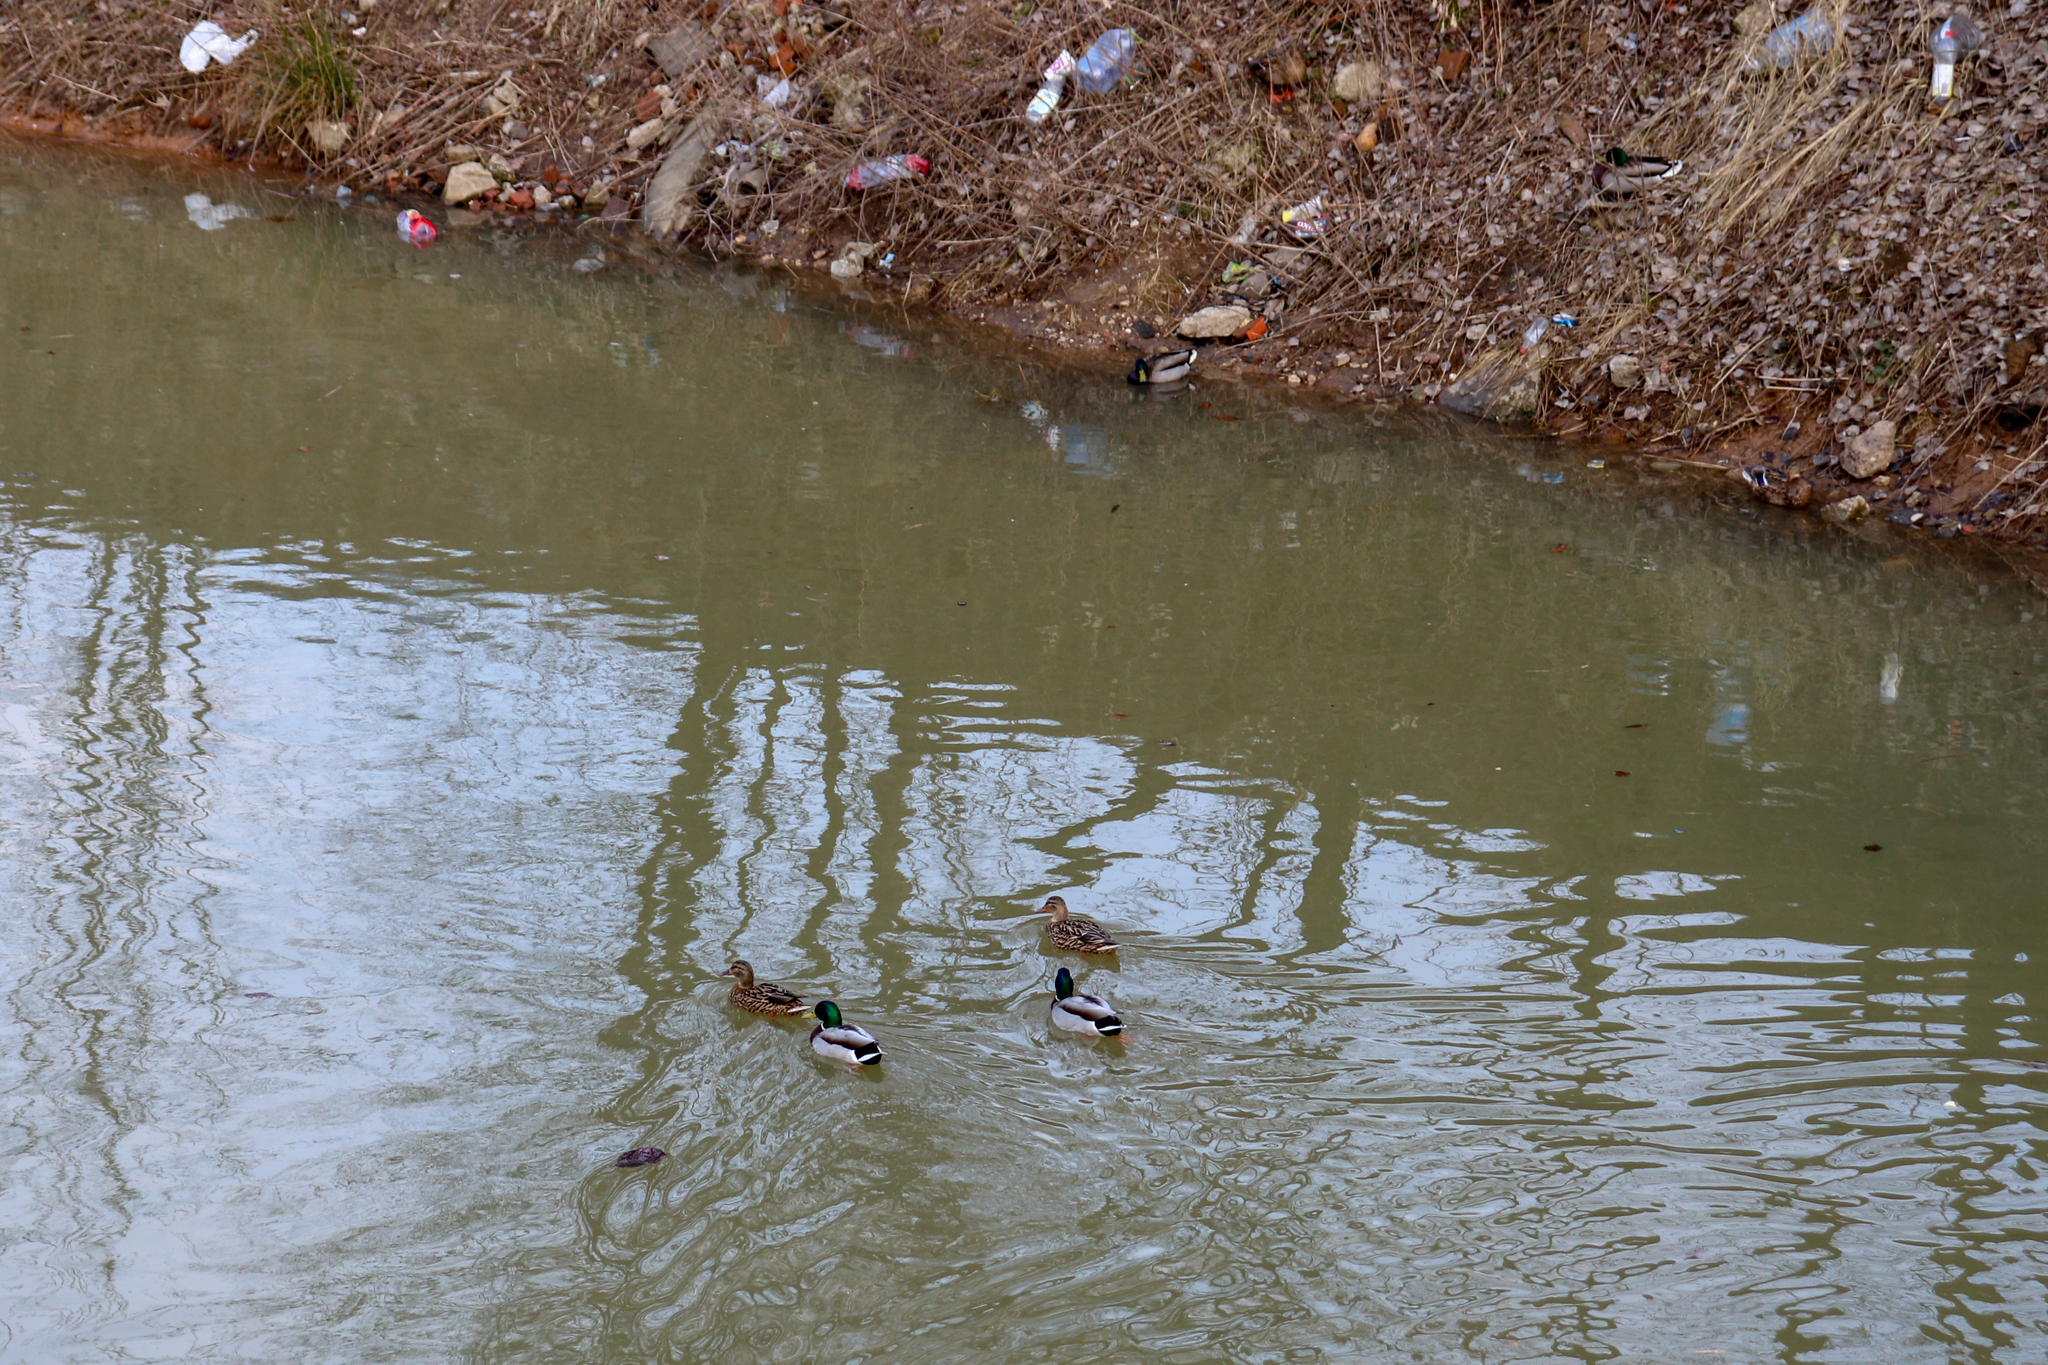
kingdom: Animalia
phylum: Chordata
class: Aves
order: Anseriformes
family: Anatidae
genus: Anas
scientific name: Anas platyrhynchos
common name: Mallard
